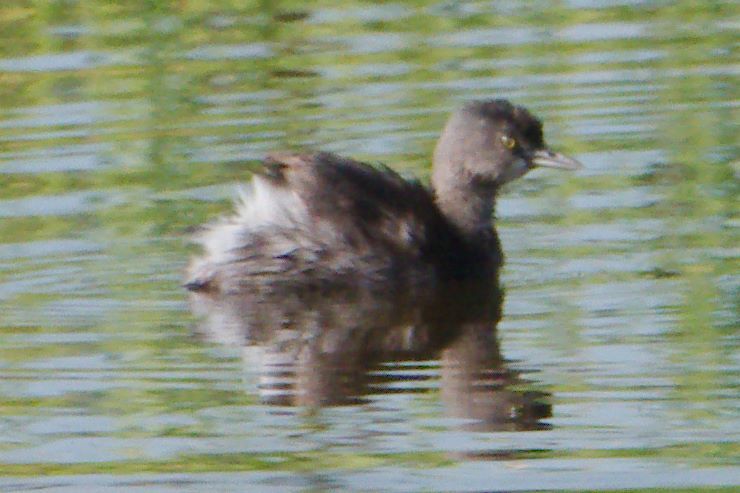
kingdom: Animalia
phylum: Chordata
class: Aves
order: Podicipediformes
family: Podicipedidae
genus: Tachybaptus
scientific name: Tachybaptus dominicus
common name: Least grebe
